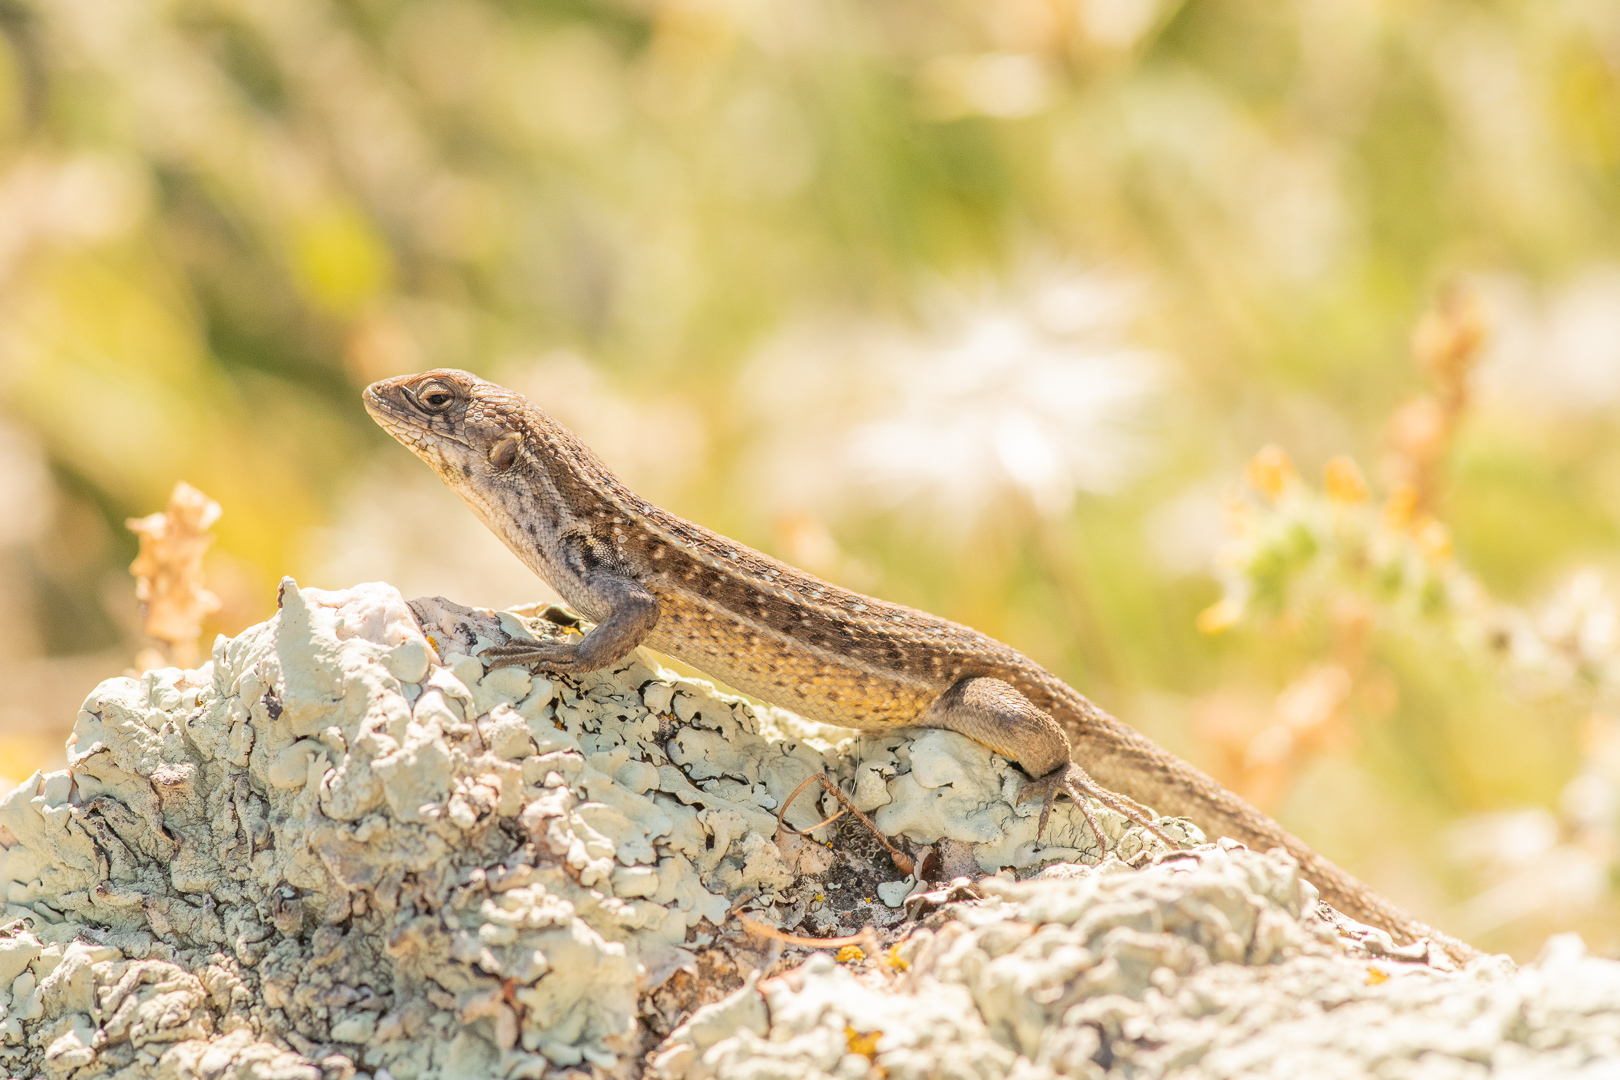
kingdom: Animalia
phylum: Chordata
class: Squamata
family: Liolaemidae
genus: Liolaemus
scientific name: Liolaemus lemniscatus
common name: Wreath tree iguana
